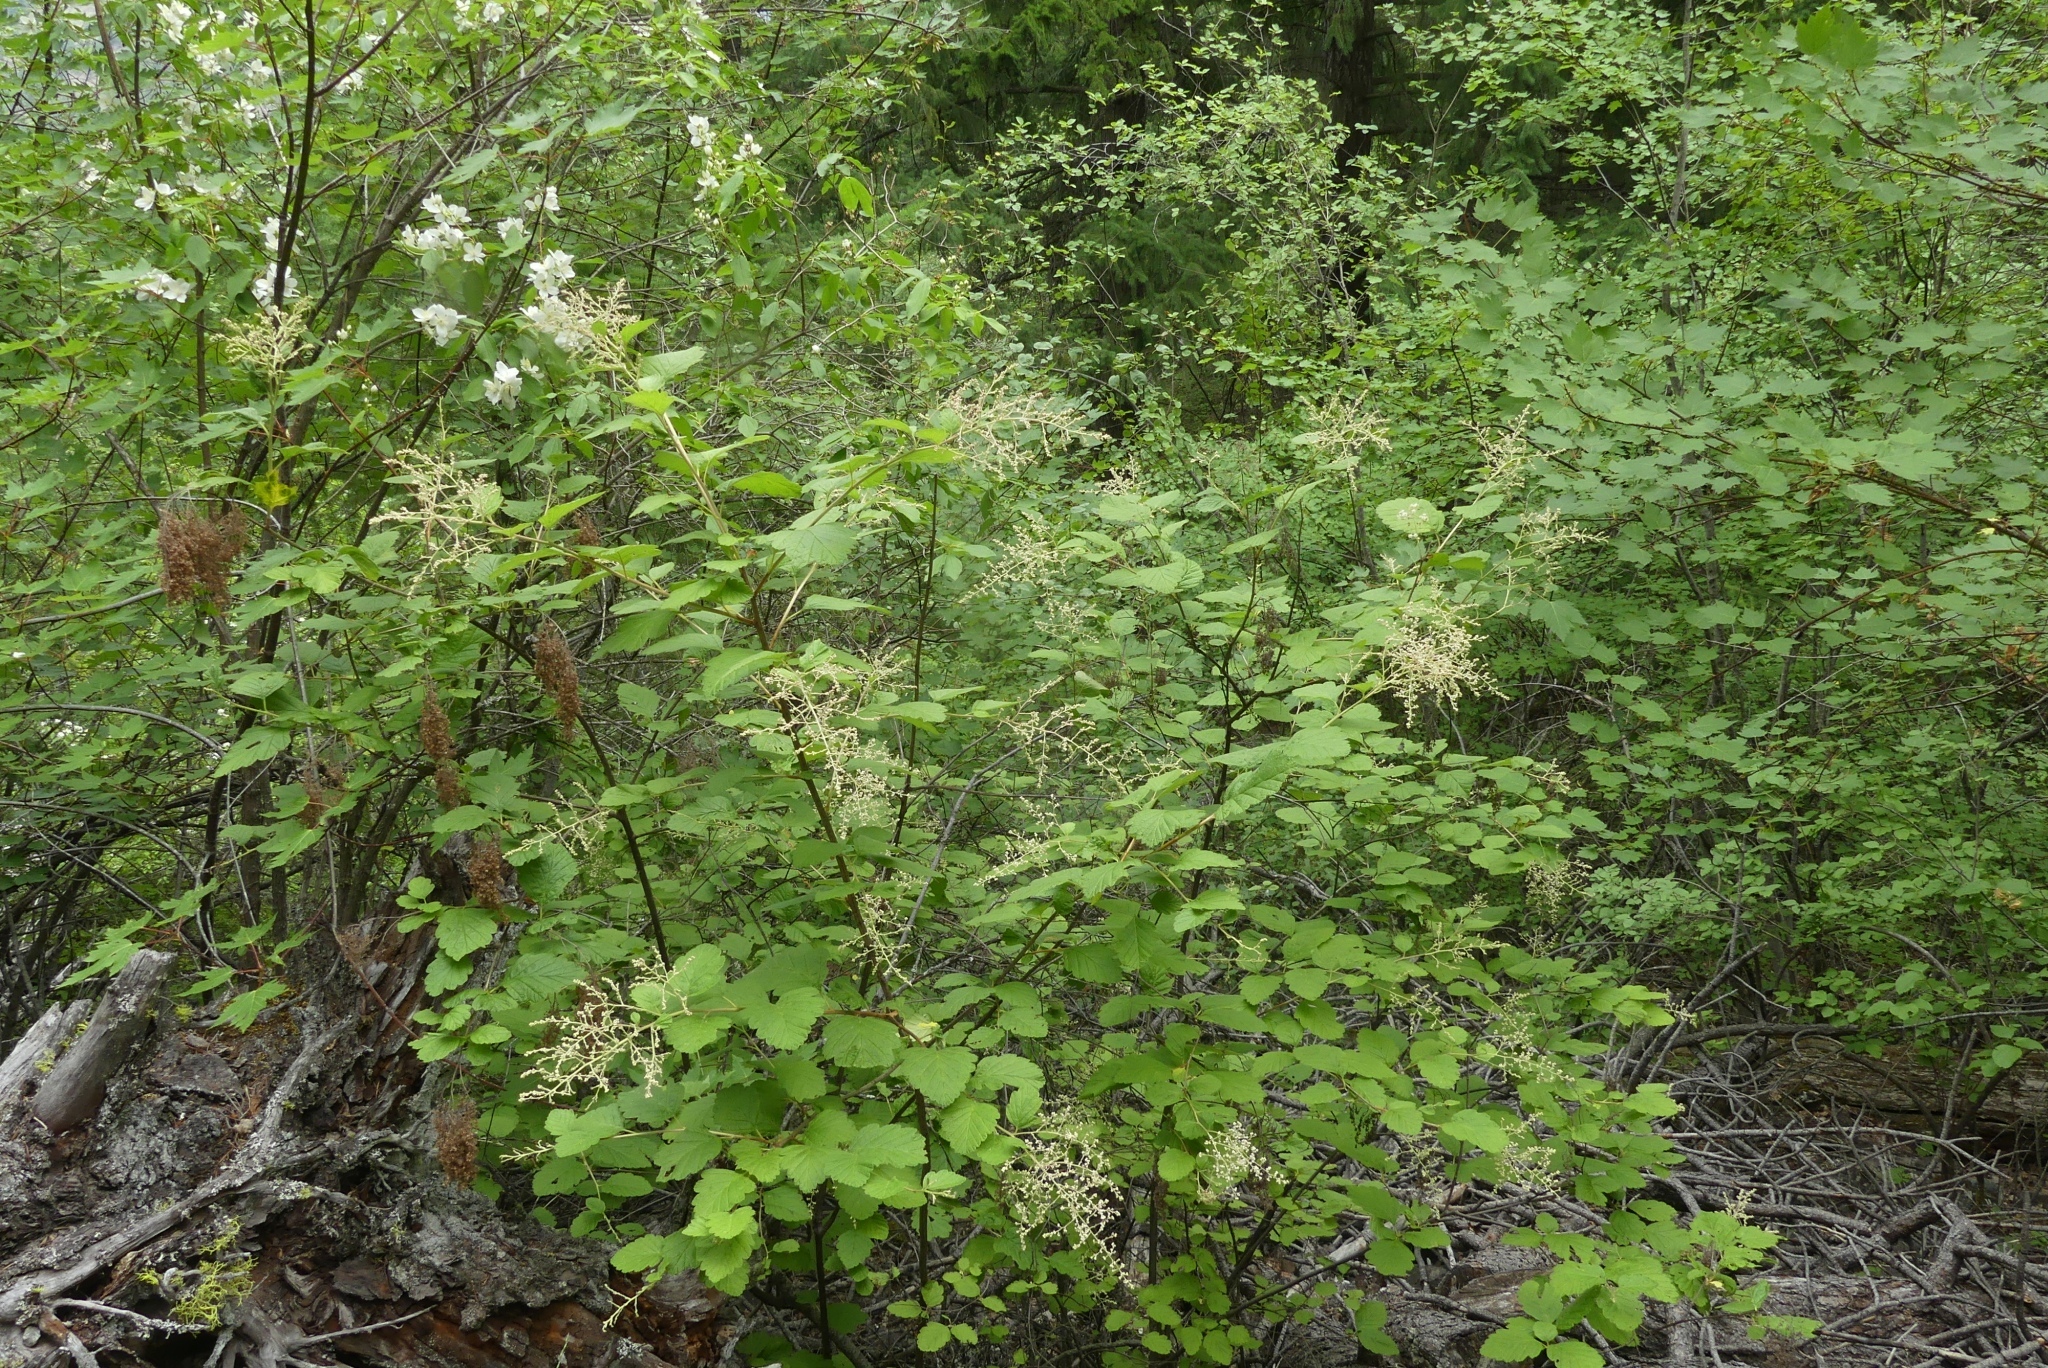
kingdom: Plantae
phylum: Tracheophyta
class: Magnoliopsida
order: Rosales
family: Rosaceae
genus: Holodiscus
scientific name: Holodiscus discolor
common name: Oceanspray
